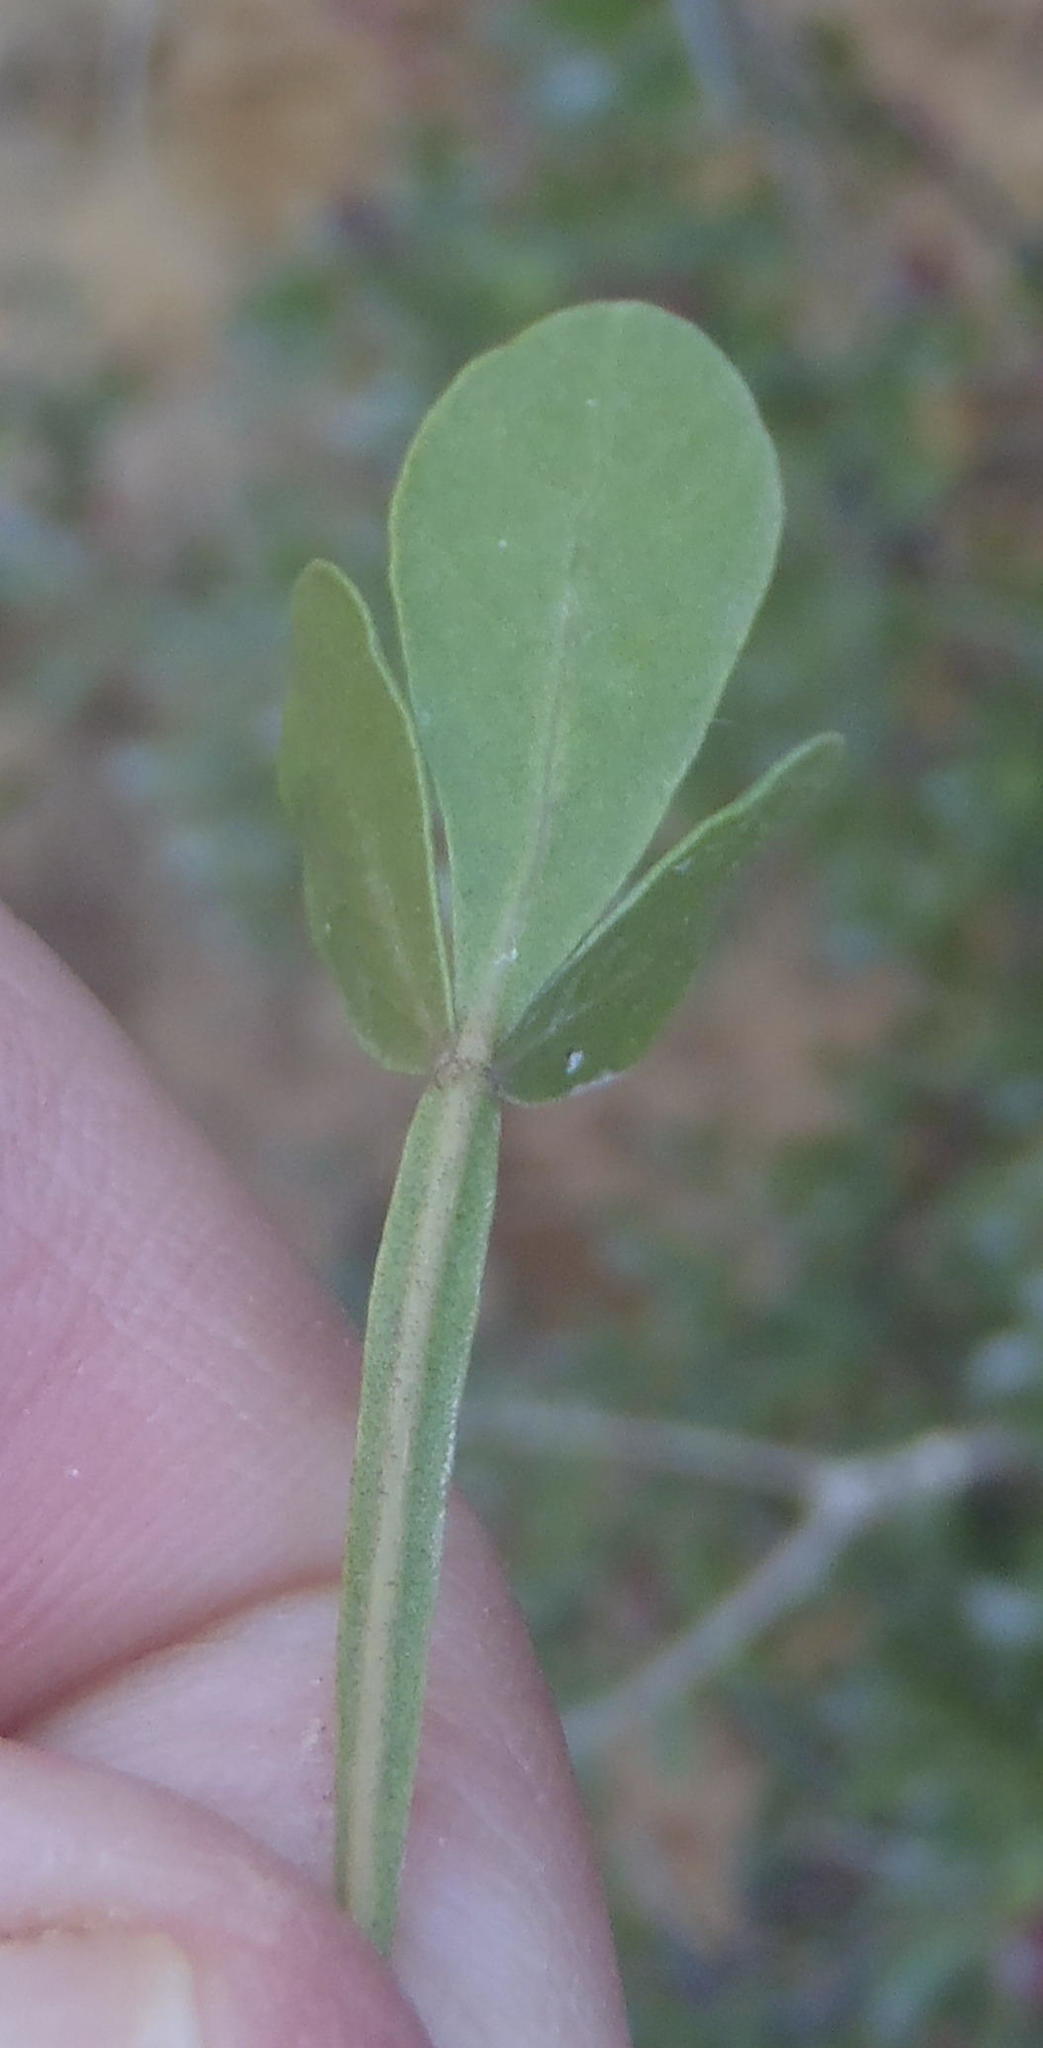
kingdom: Plantae
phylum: Tracheophyta
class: Magnoliopsida
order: Sapindales
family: Anacardiaceae
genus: Searsia
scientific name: Searsia pterota
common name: Winged currant
